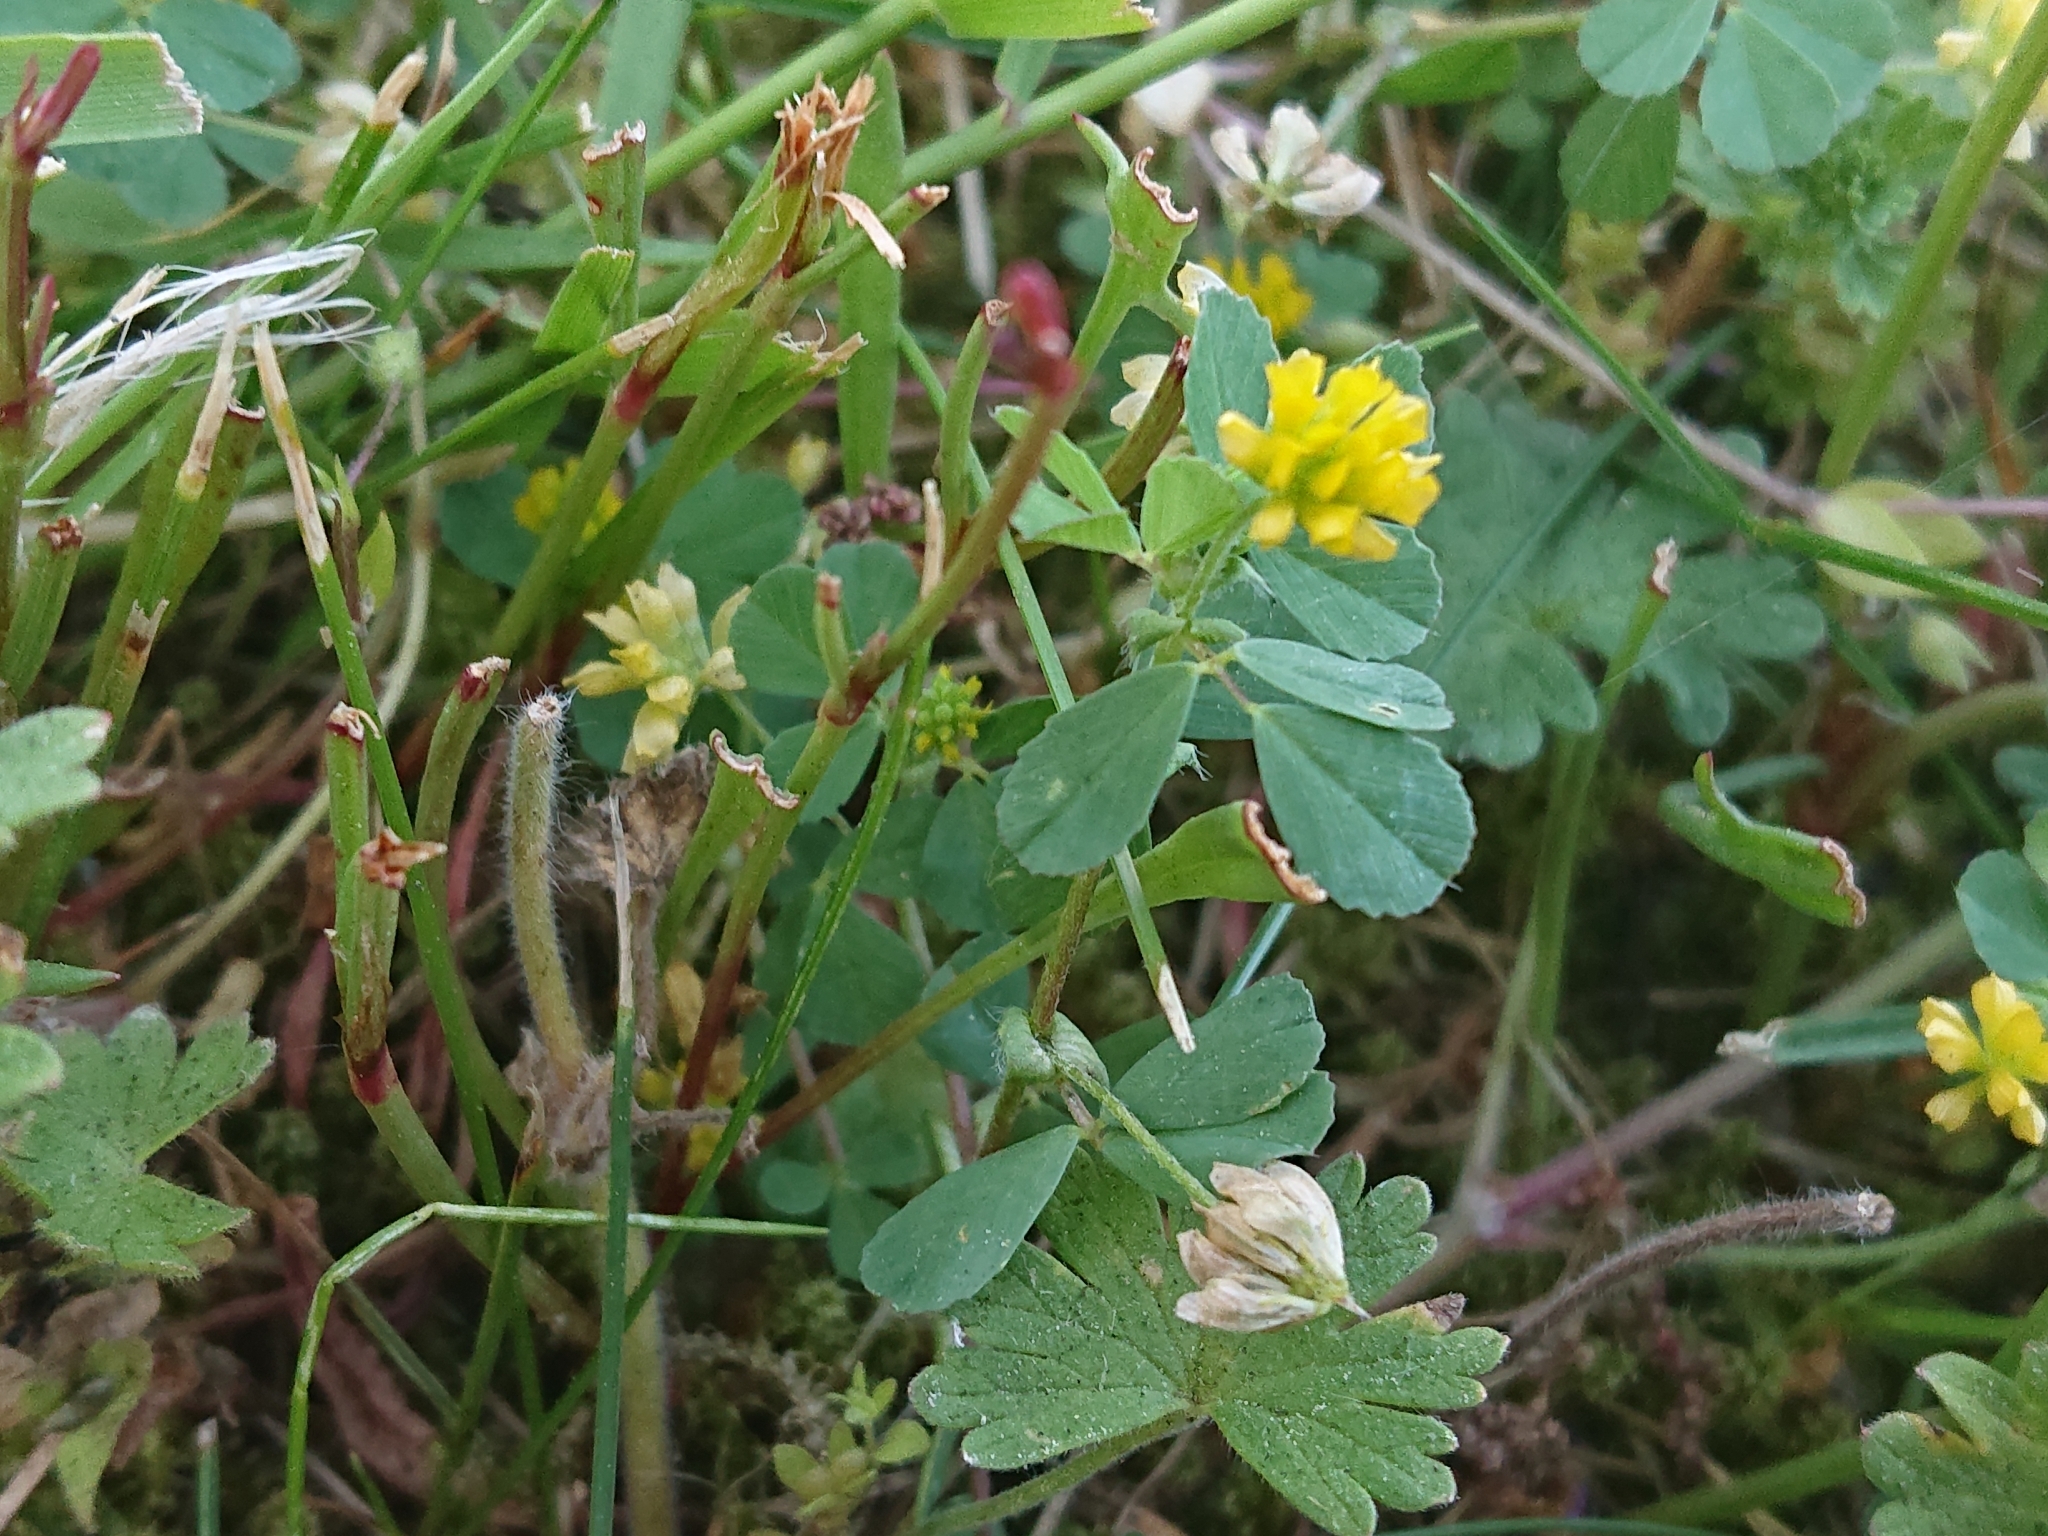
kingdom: Plantae
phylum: Tracheophyta
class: Magnoliopsida
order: Fabales
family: Fabaceae
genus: Trifolium
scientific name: Trifolium dubium
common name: Suckling clover
